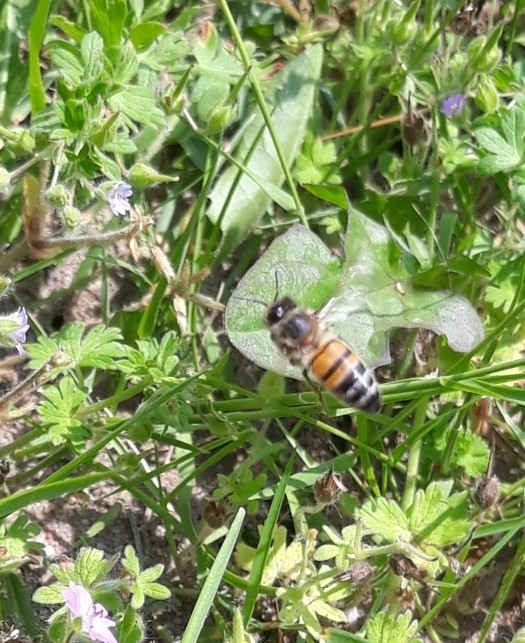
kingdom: Animalia
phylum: Arthropoda
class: Insecta
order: Hymenoptera
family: Apidae
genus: Apis
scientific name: Apis mellifera
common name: Honey bee
